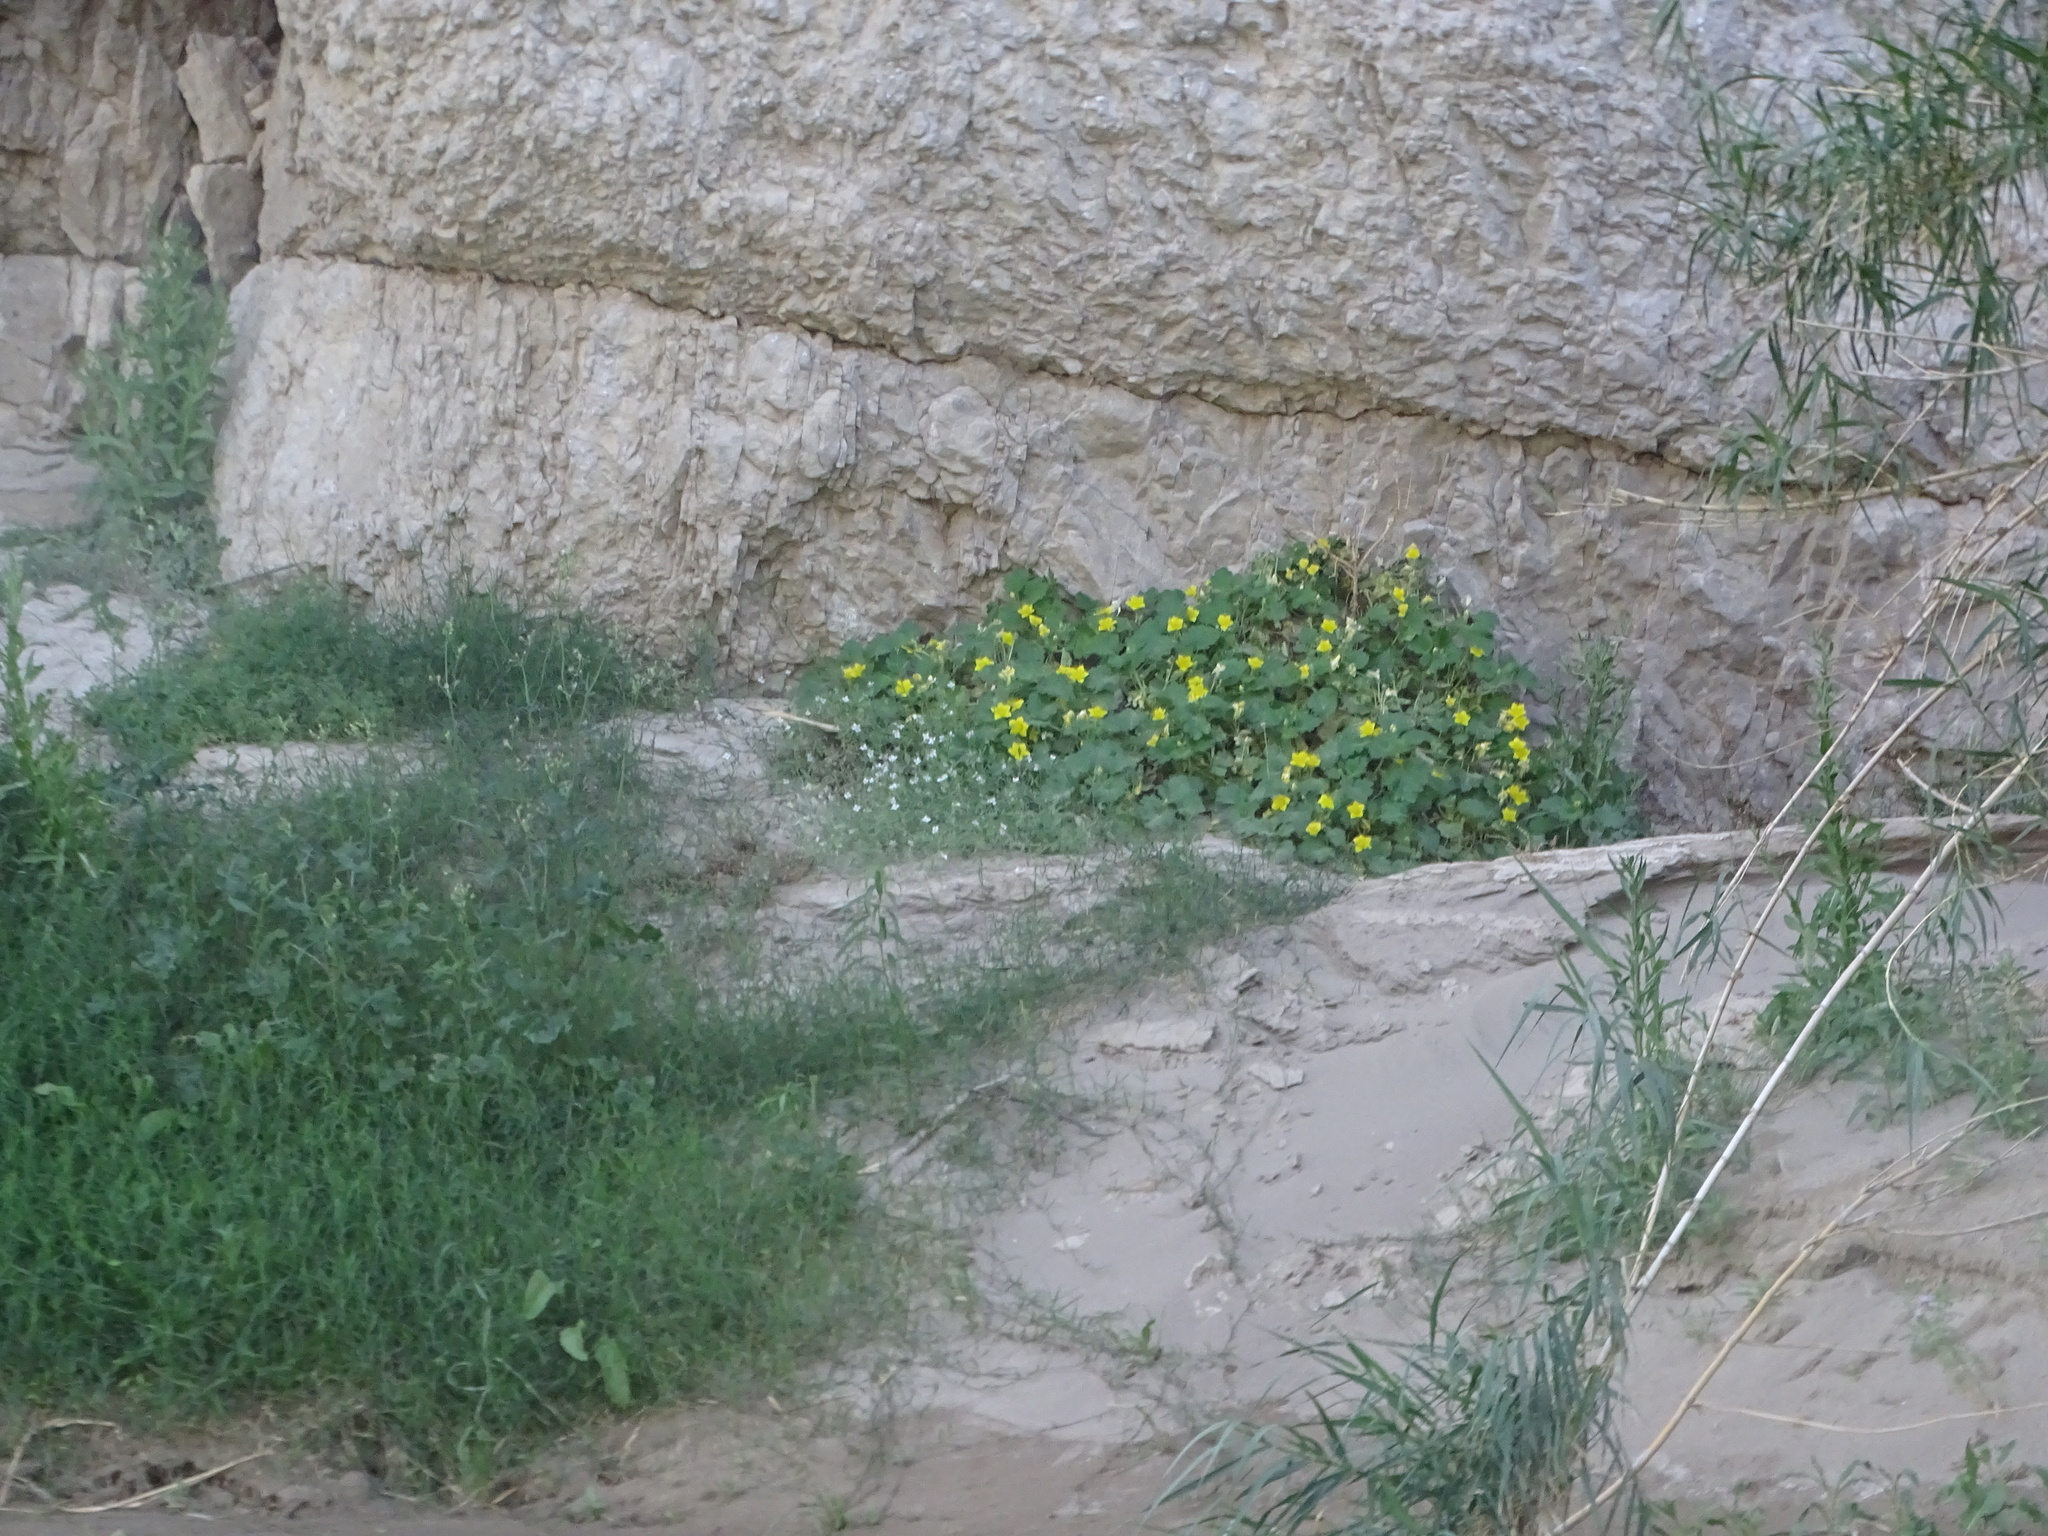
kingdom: Plantae
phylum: Tracheophyta
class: Magnoliopsida
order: Cornales
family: Loasaceae
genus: Eucnide
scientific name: Eucnide bartonioides
